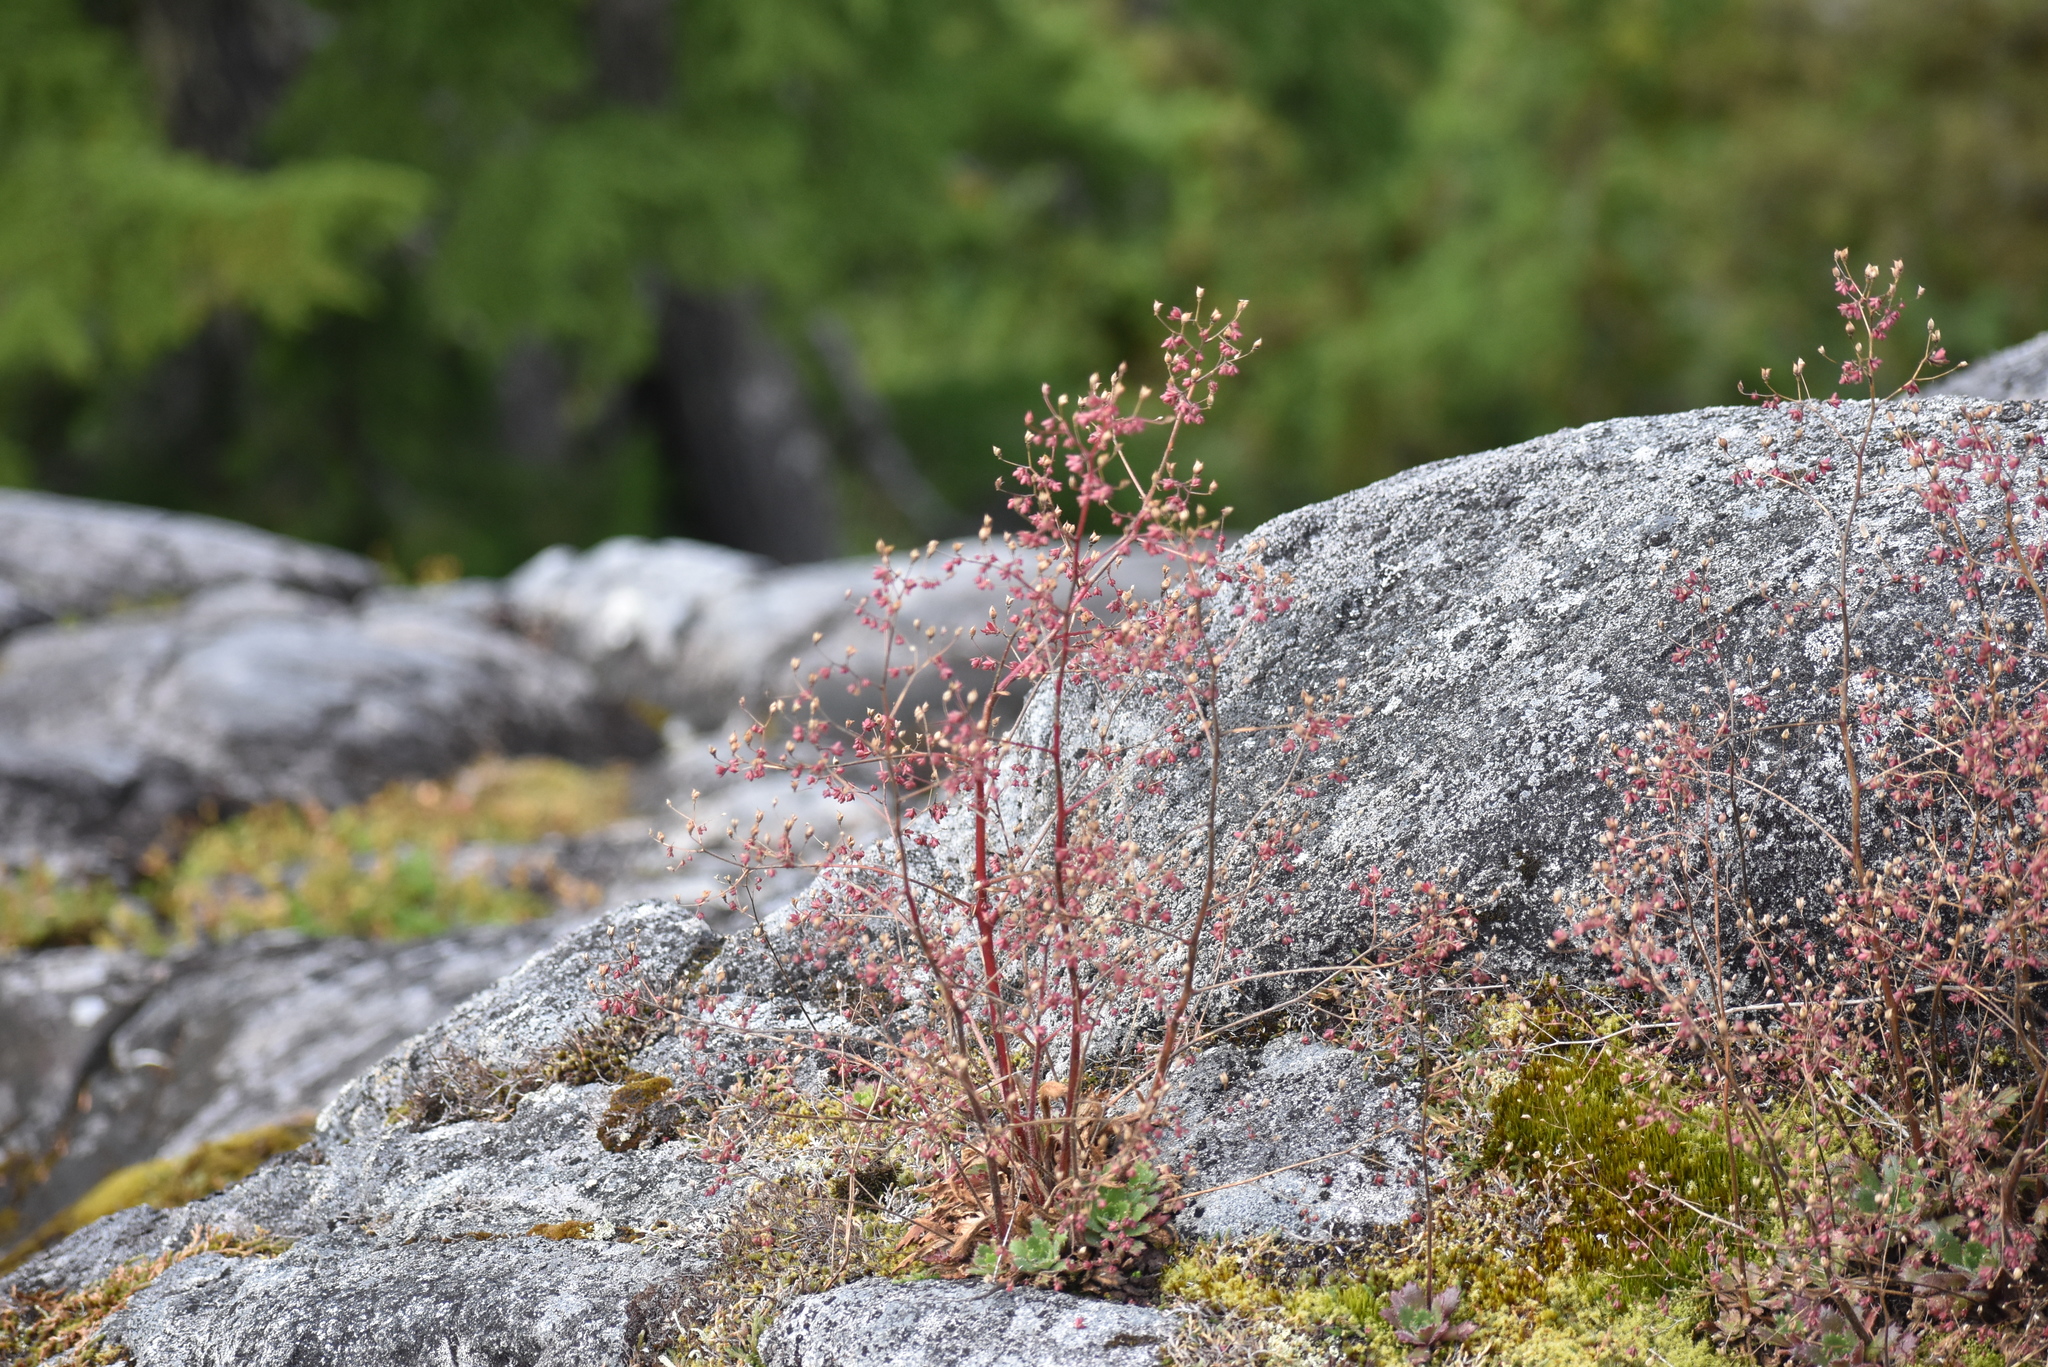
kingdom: Plantae
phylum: Tracheophyta
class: Magnoliopsida
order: Saxifragales
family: Saxifragaceae
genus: Micranthes
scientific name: Micranthes ferruginea
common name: Rusty saxifrage
